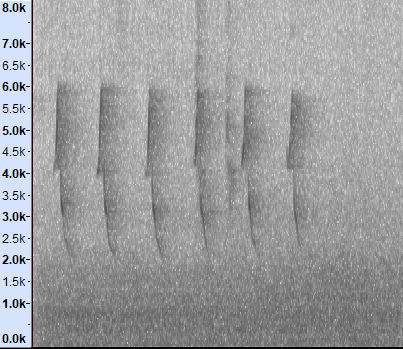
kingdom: Animalia
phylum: Chordata
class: Aves
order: Passeriformes
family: Cisticolidae
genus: Orthotomus
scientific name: Orthotomus sutorius
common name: Common tailorbird
